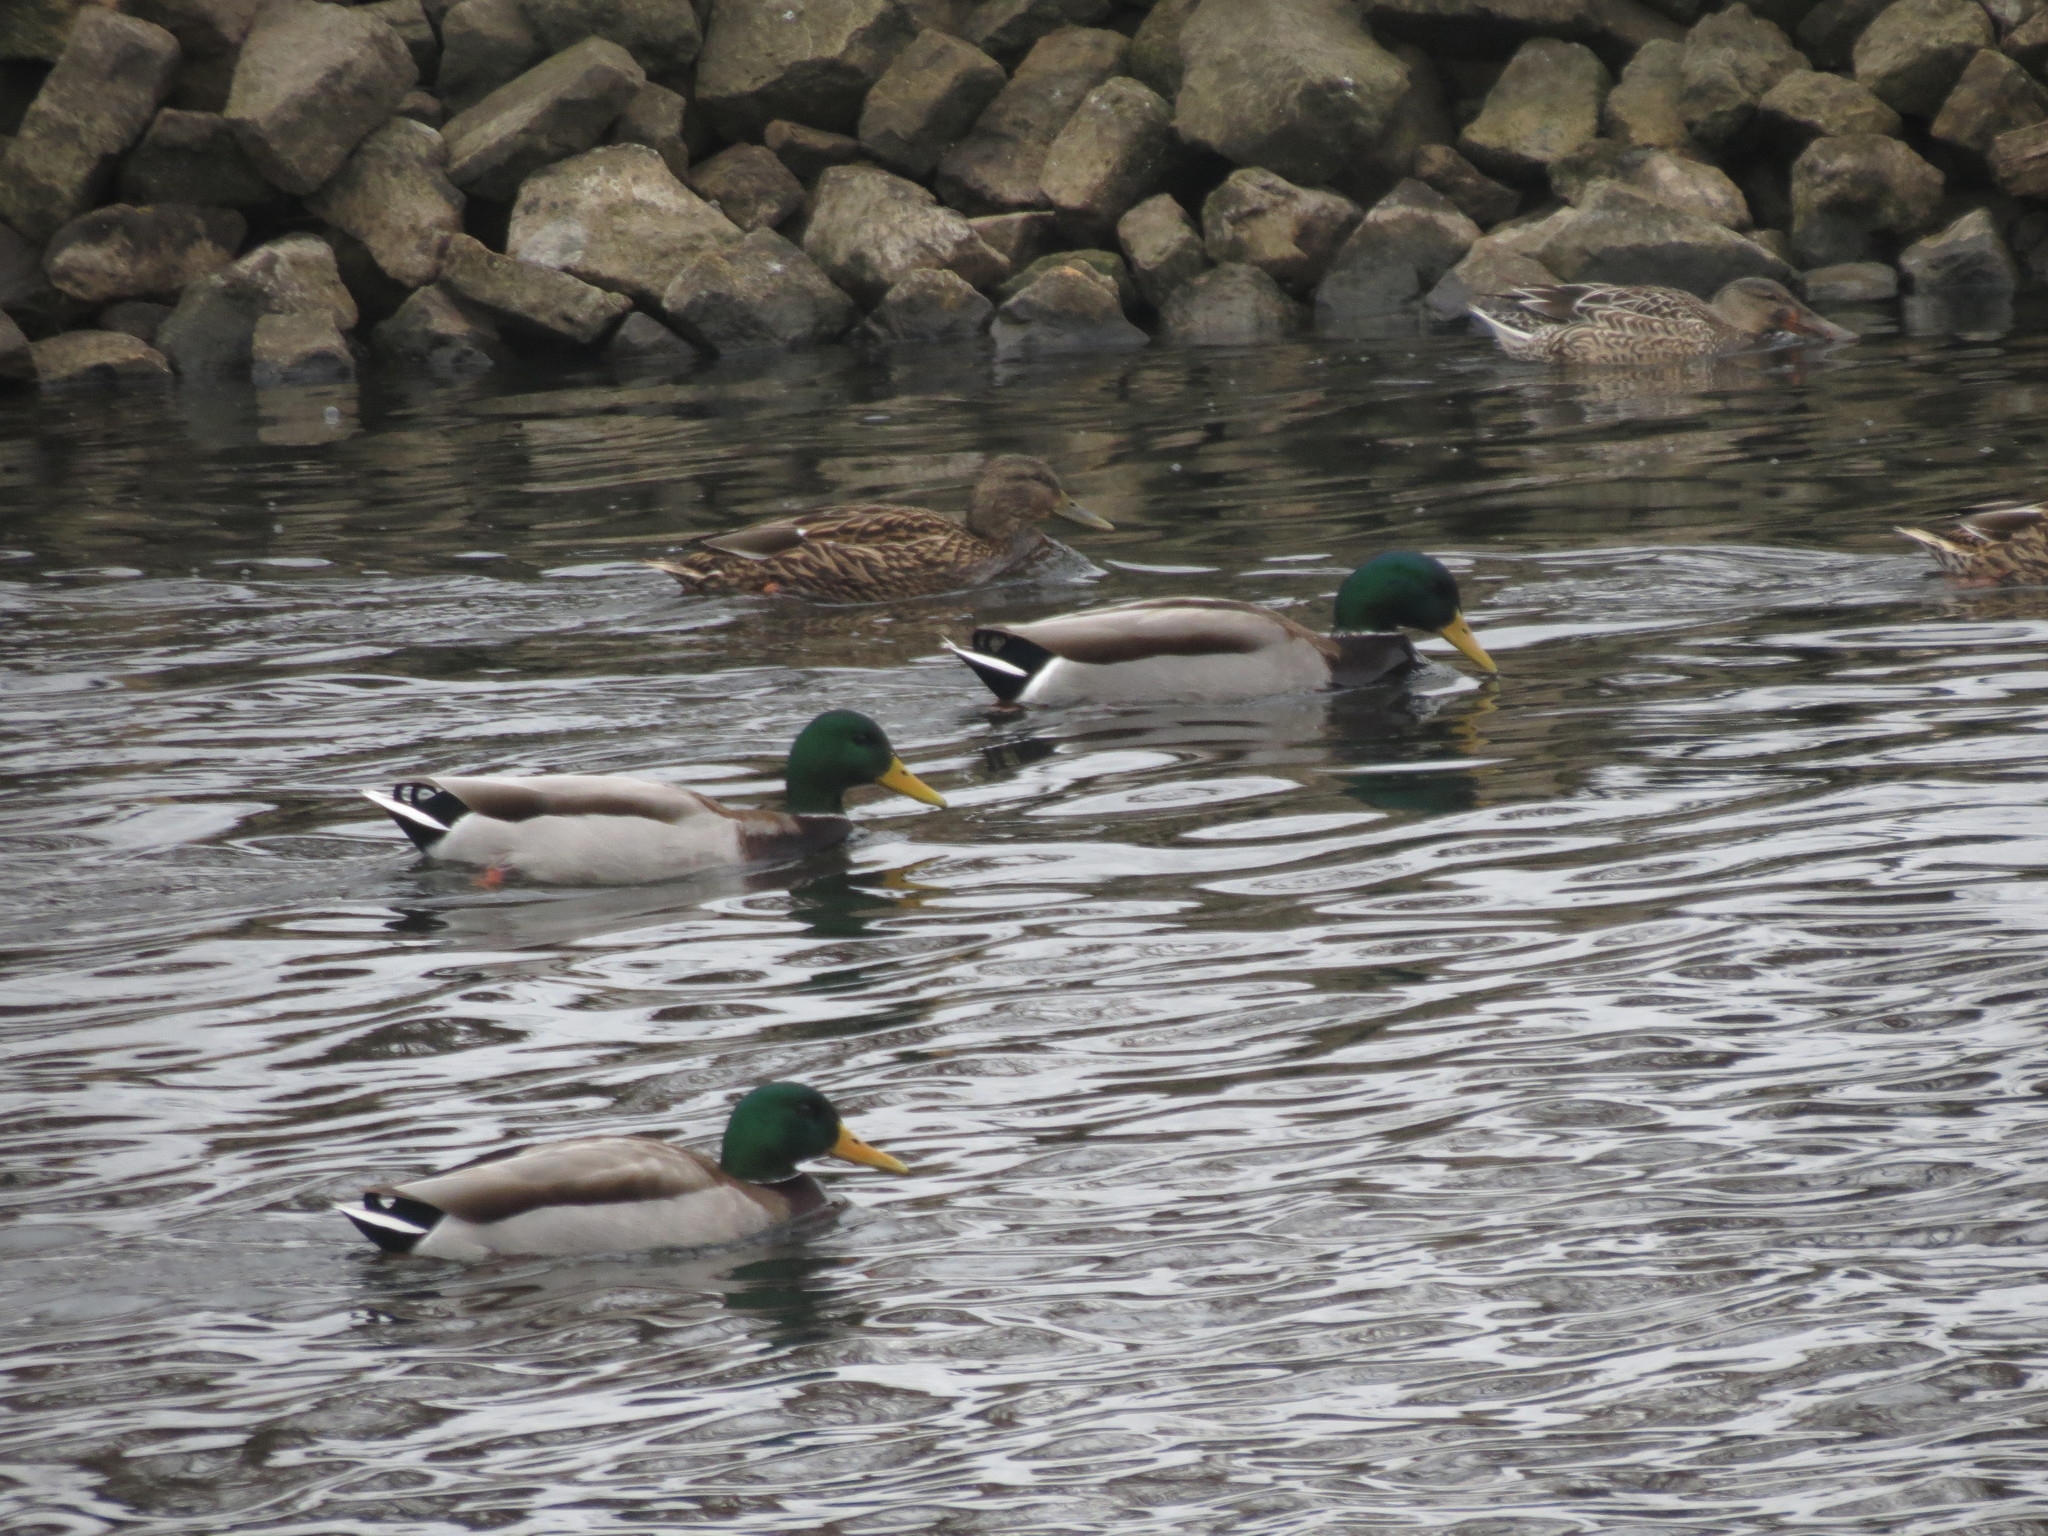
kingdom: Animalia
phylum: Chordata
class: Aves
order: Anseriformes
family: Anatidae
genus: Anas
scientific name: Anas platyrhynchos
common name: Mallard
